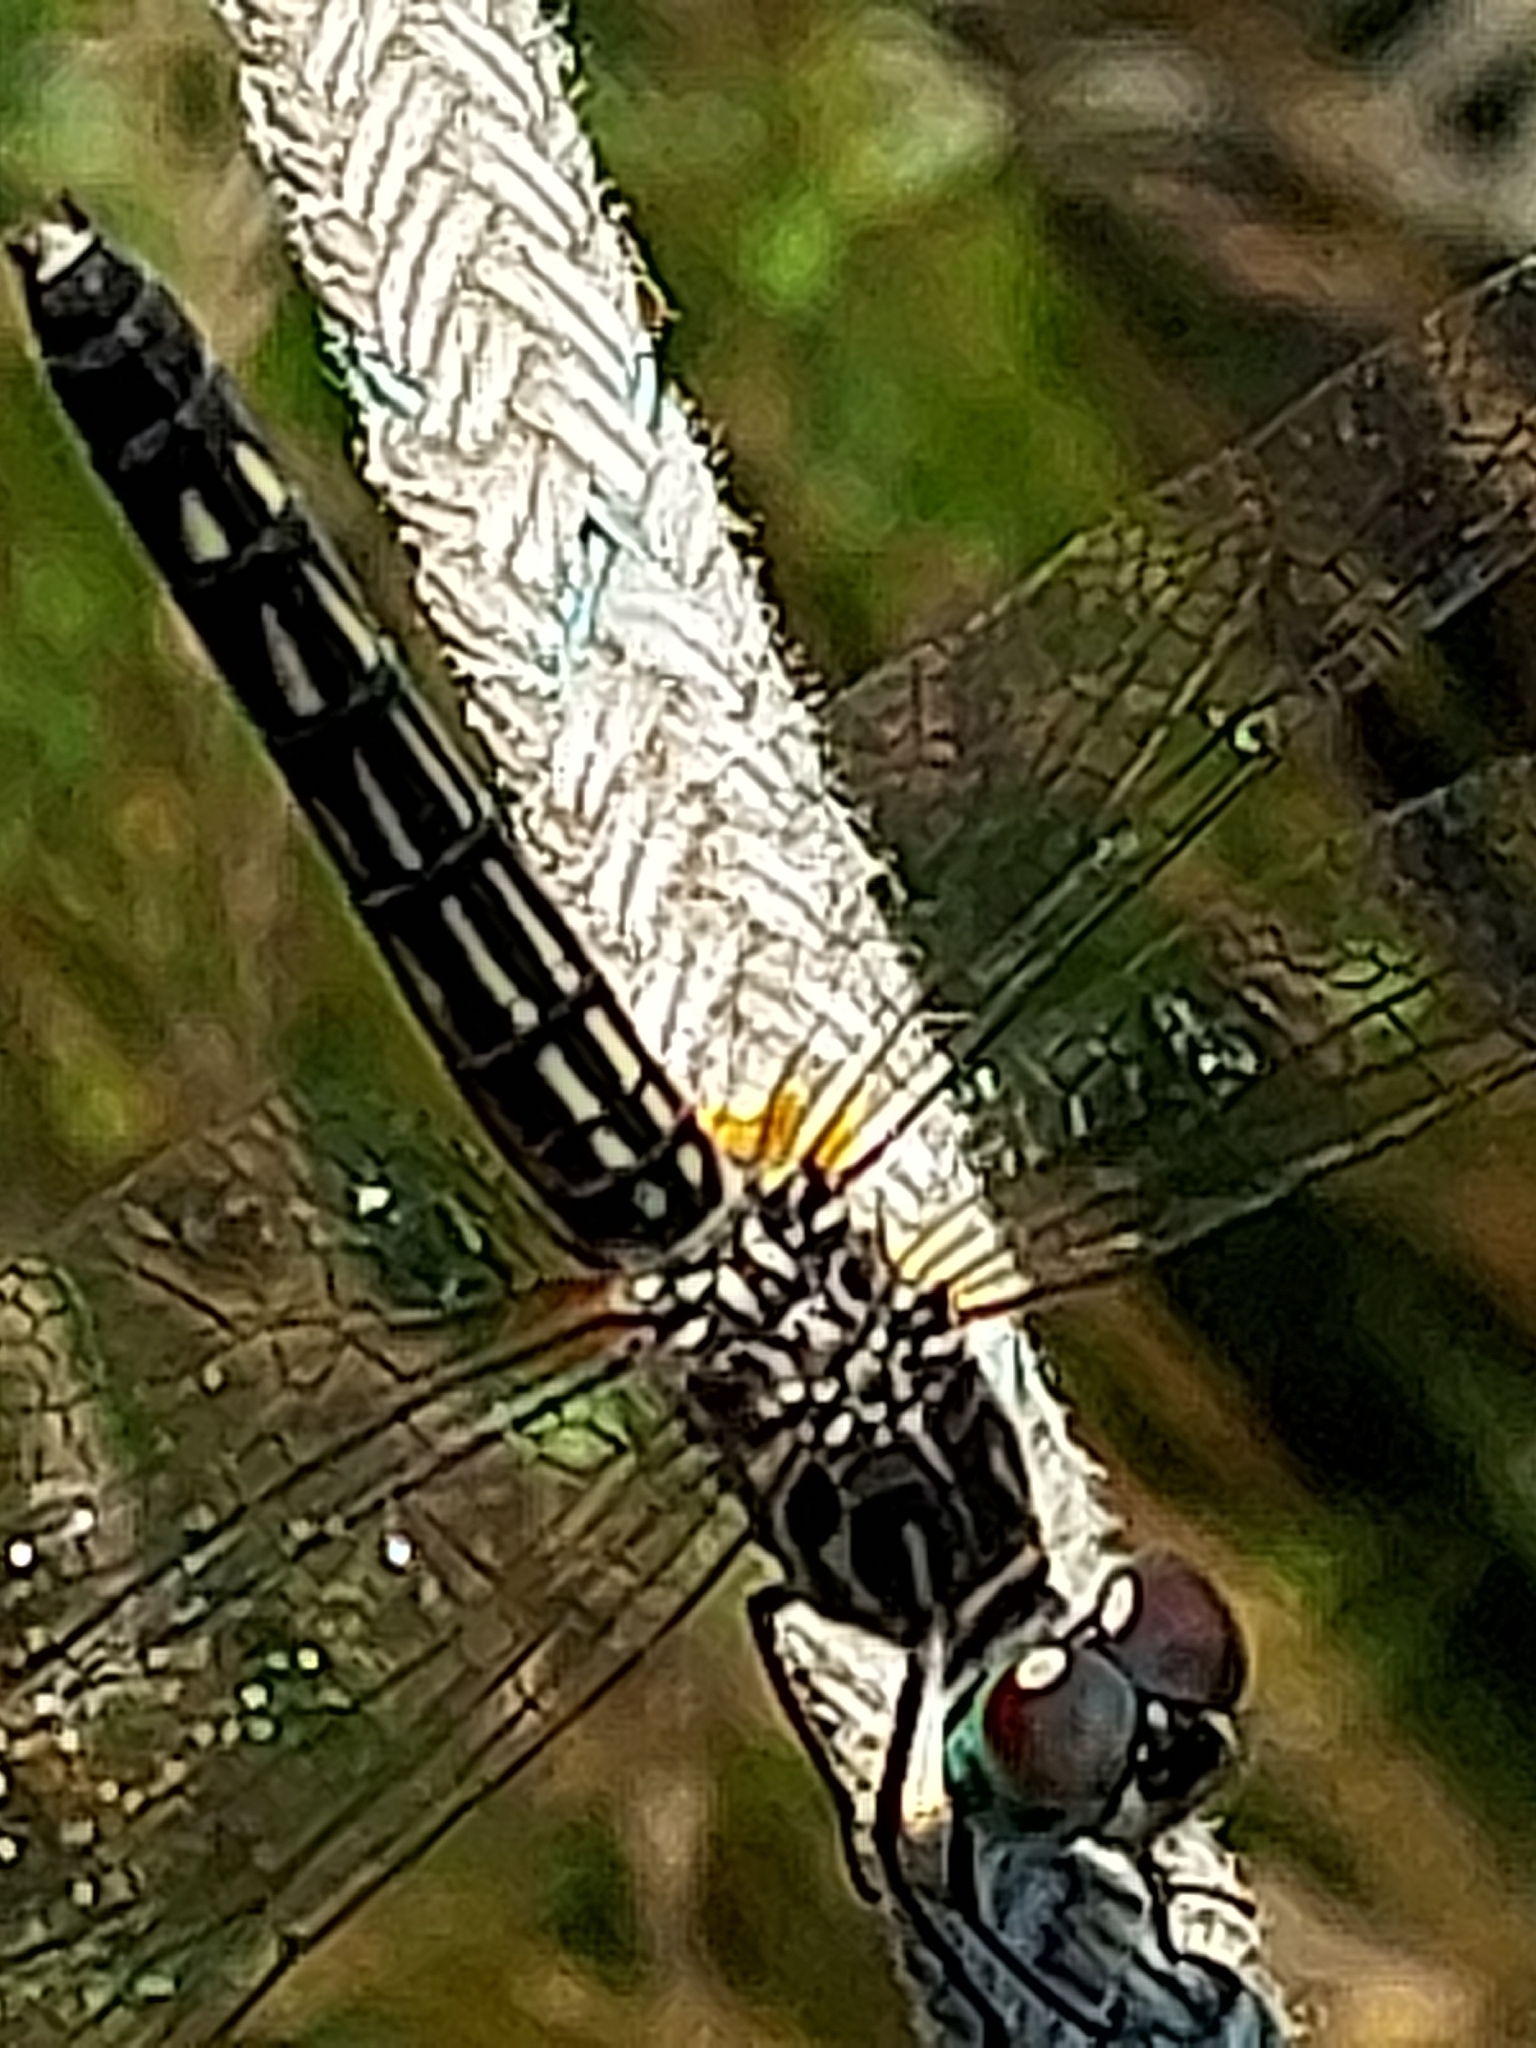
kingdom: Animalia
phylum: Arthropoda
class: Insecta
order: Odonata
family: Libellulidae
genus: Pachydiplax
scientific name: Pachydiplax longipennis
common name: Blue dasher
